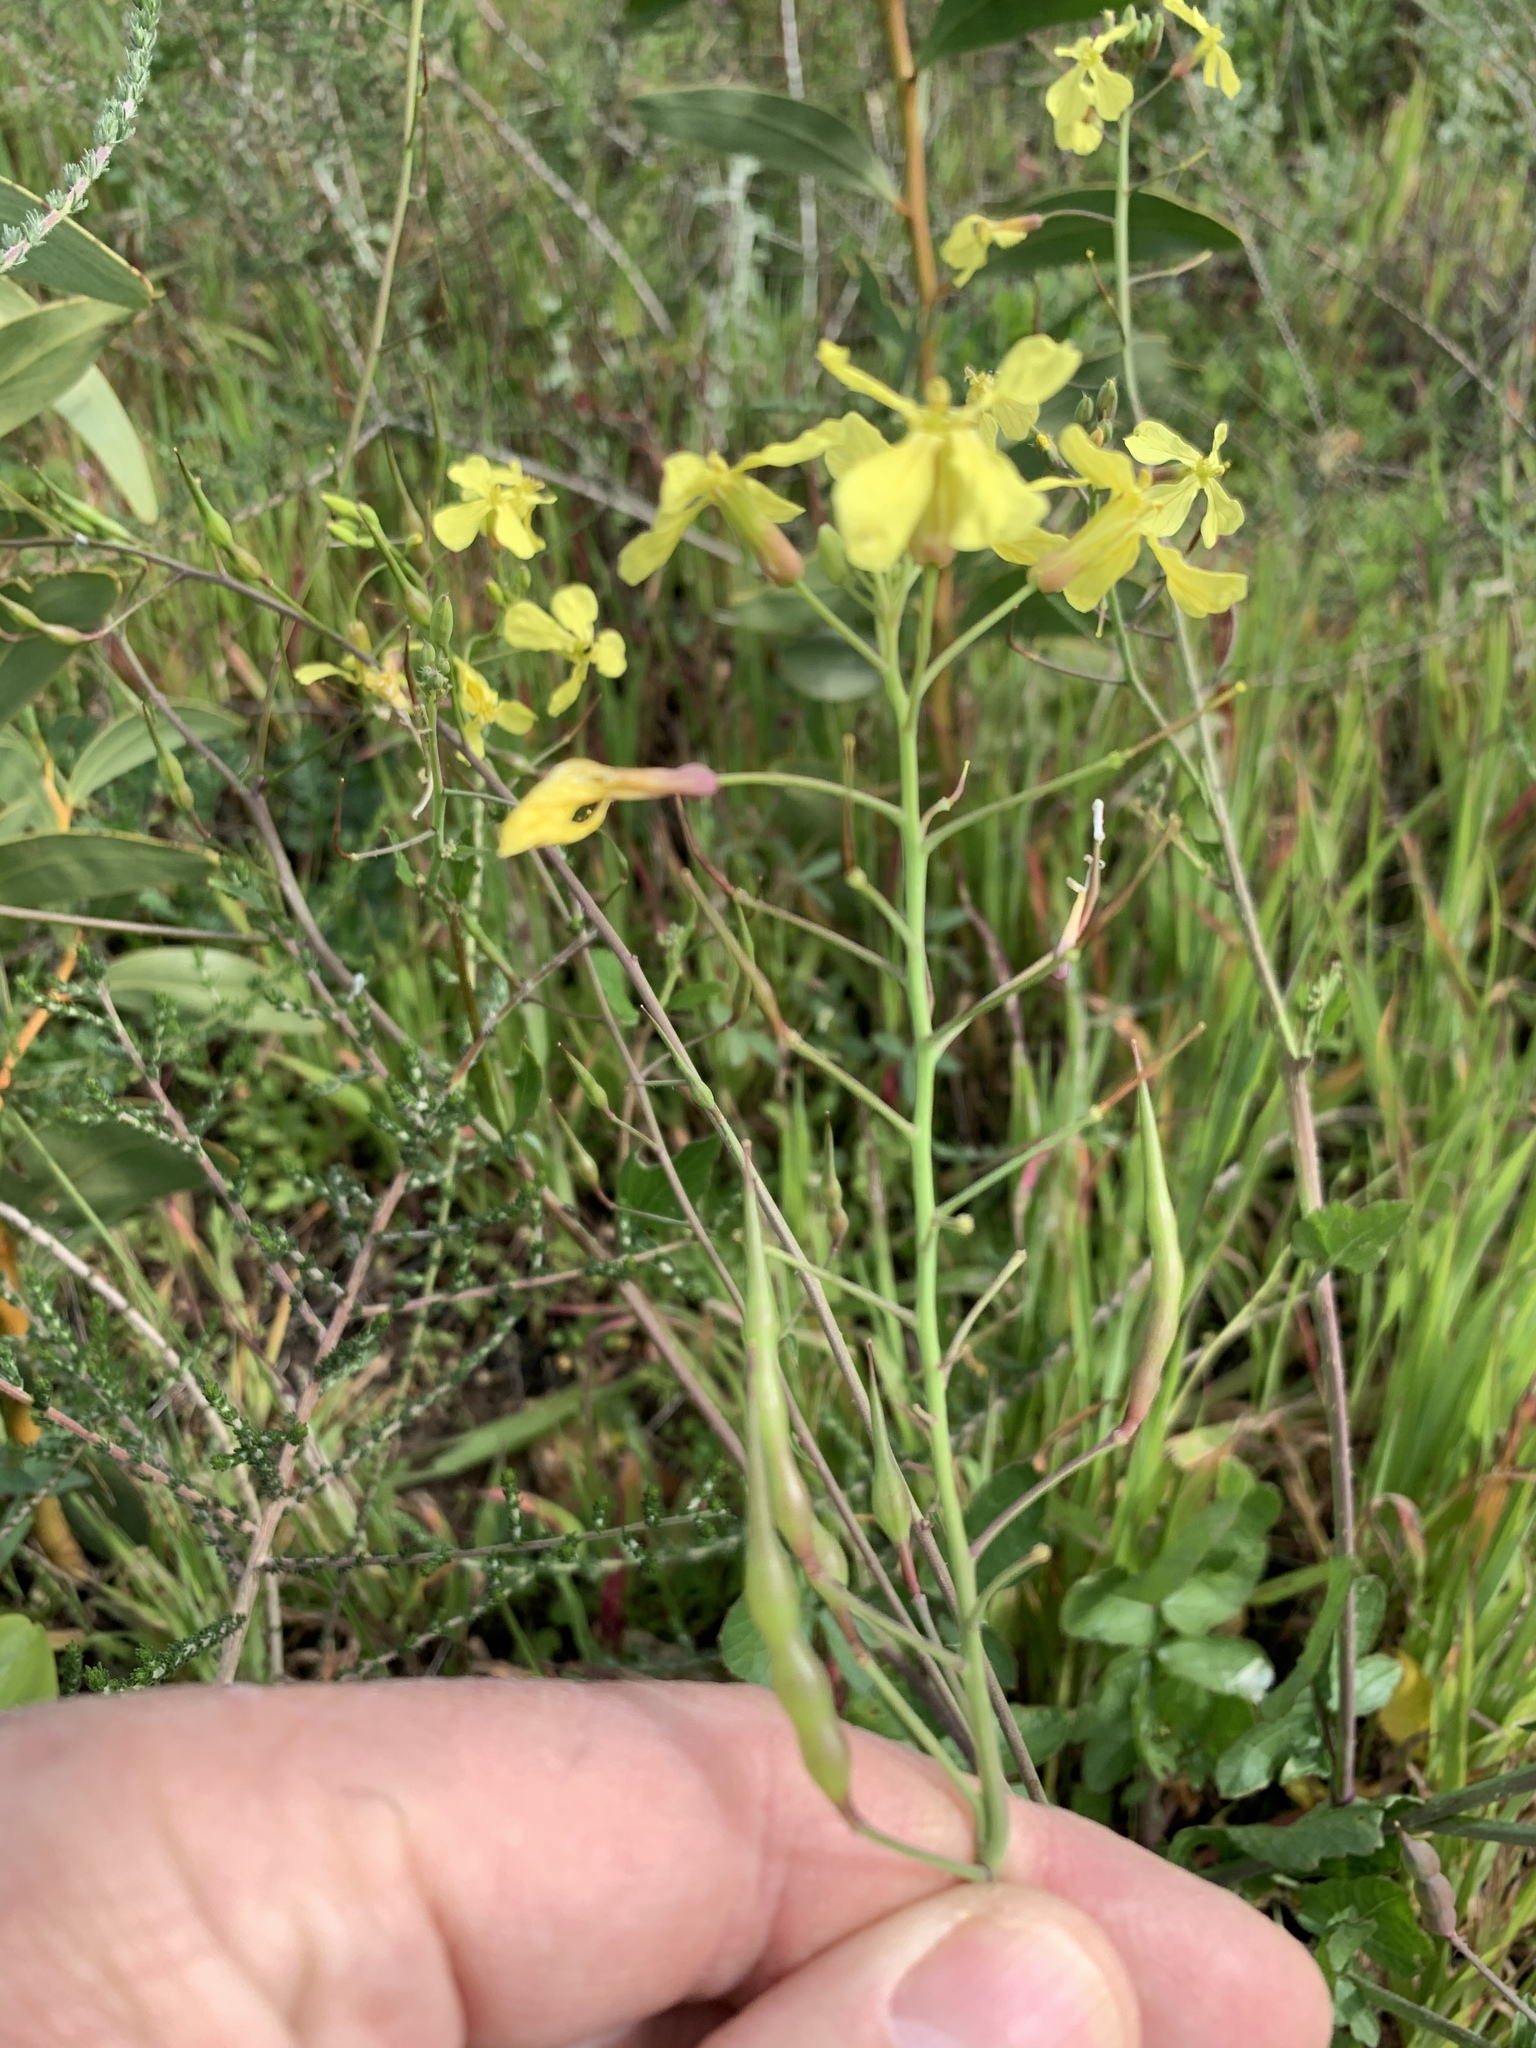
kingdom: Plantae
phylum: Tracheophyta
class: Magnoliopsida
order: Brassicales
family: Brassicaceae
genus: Raphanus
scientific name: Raphanus raphanistrum
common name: Wild radish
